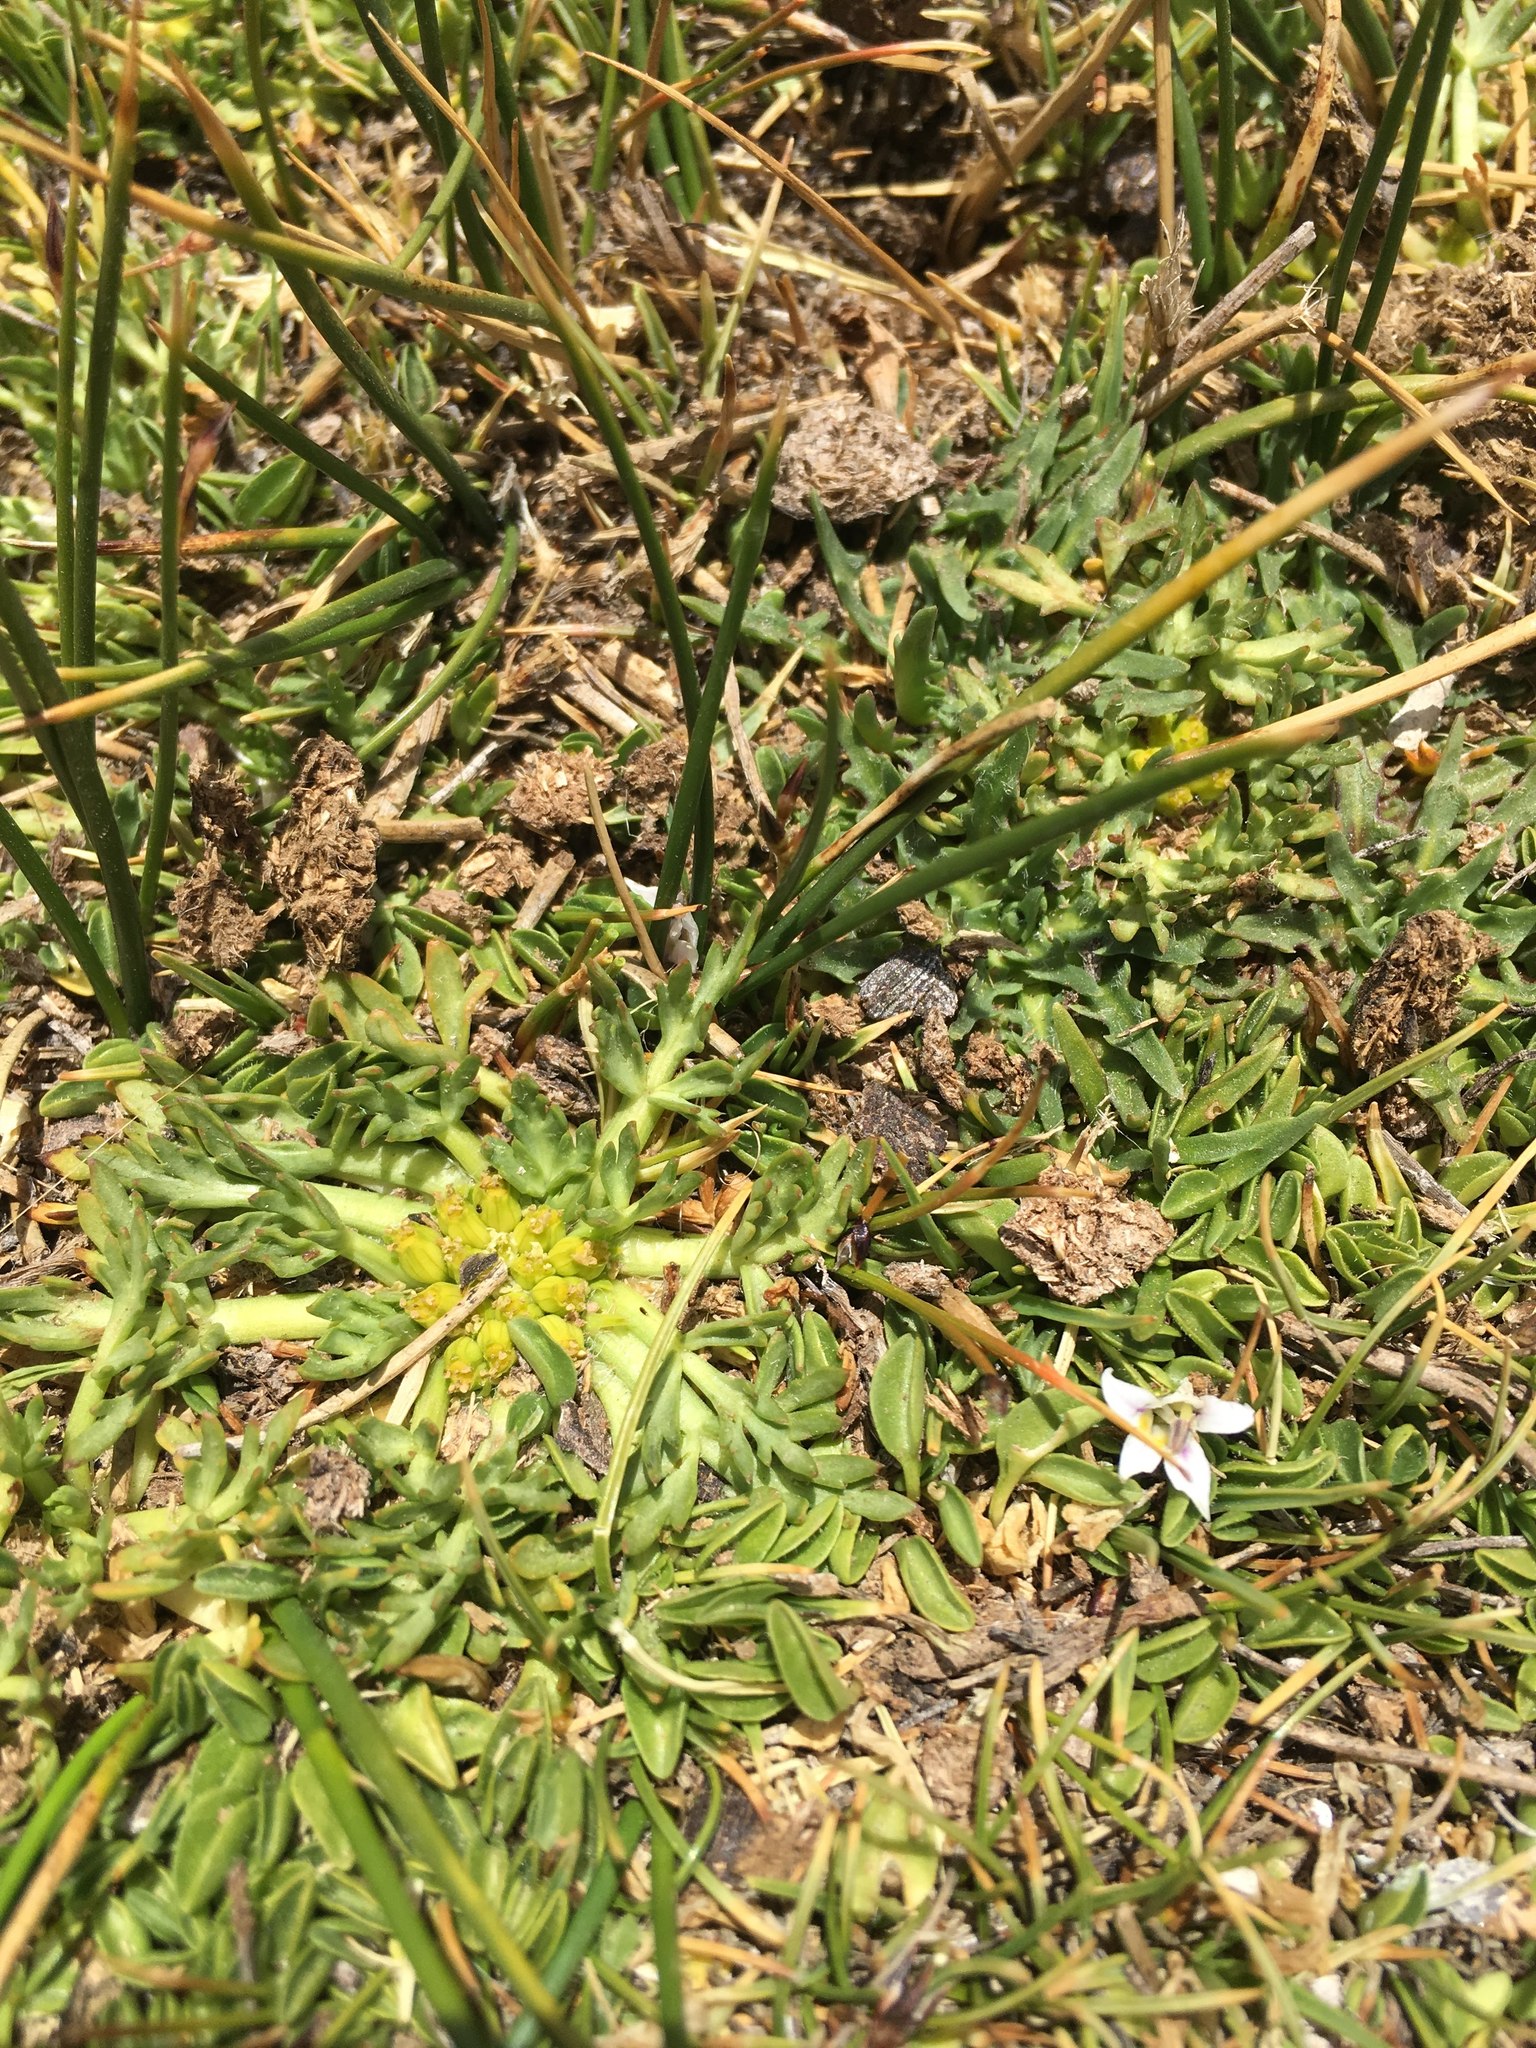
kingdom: Plantae
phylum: Tracheophyta
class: Magnoliopsida
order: Apiales
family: Apiaceae
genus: Azorella
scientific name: Azorella trifoliolata
